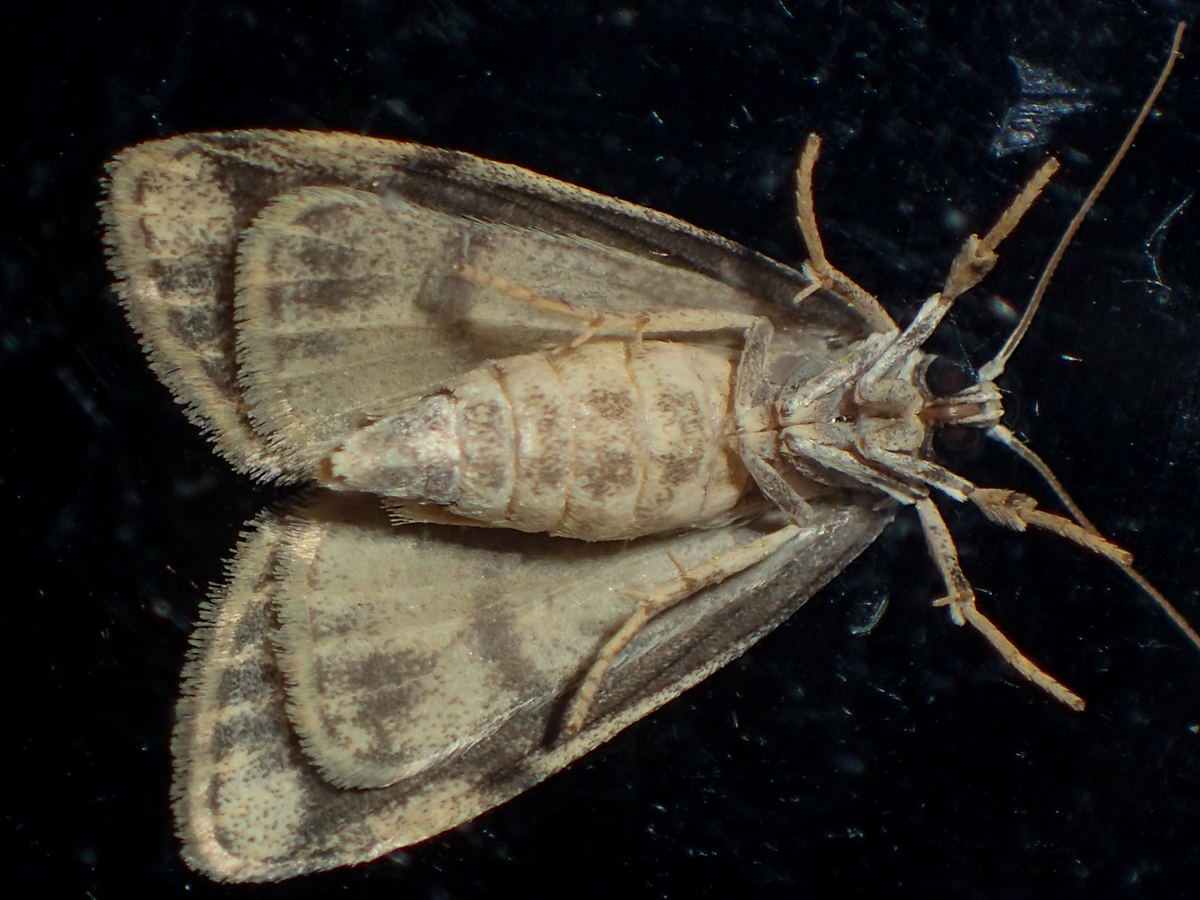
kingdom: Animalia
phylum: Arthropoda
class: Insecta
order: Lepidoptera
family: Erebidae
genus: Holocraspedon
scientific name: Holocraspedon bilineata
